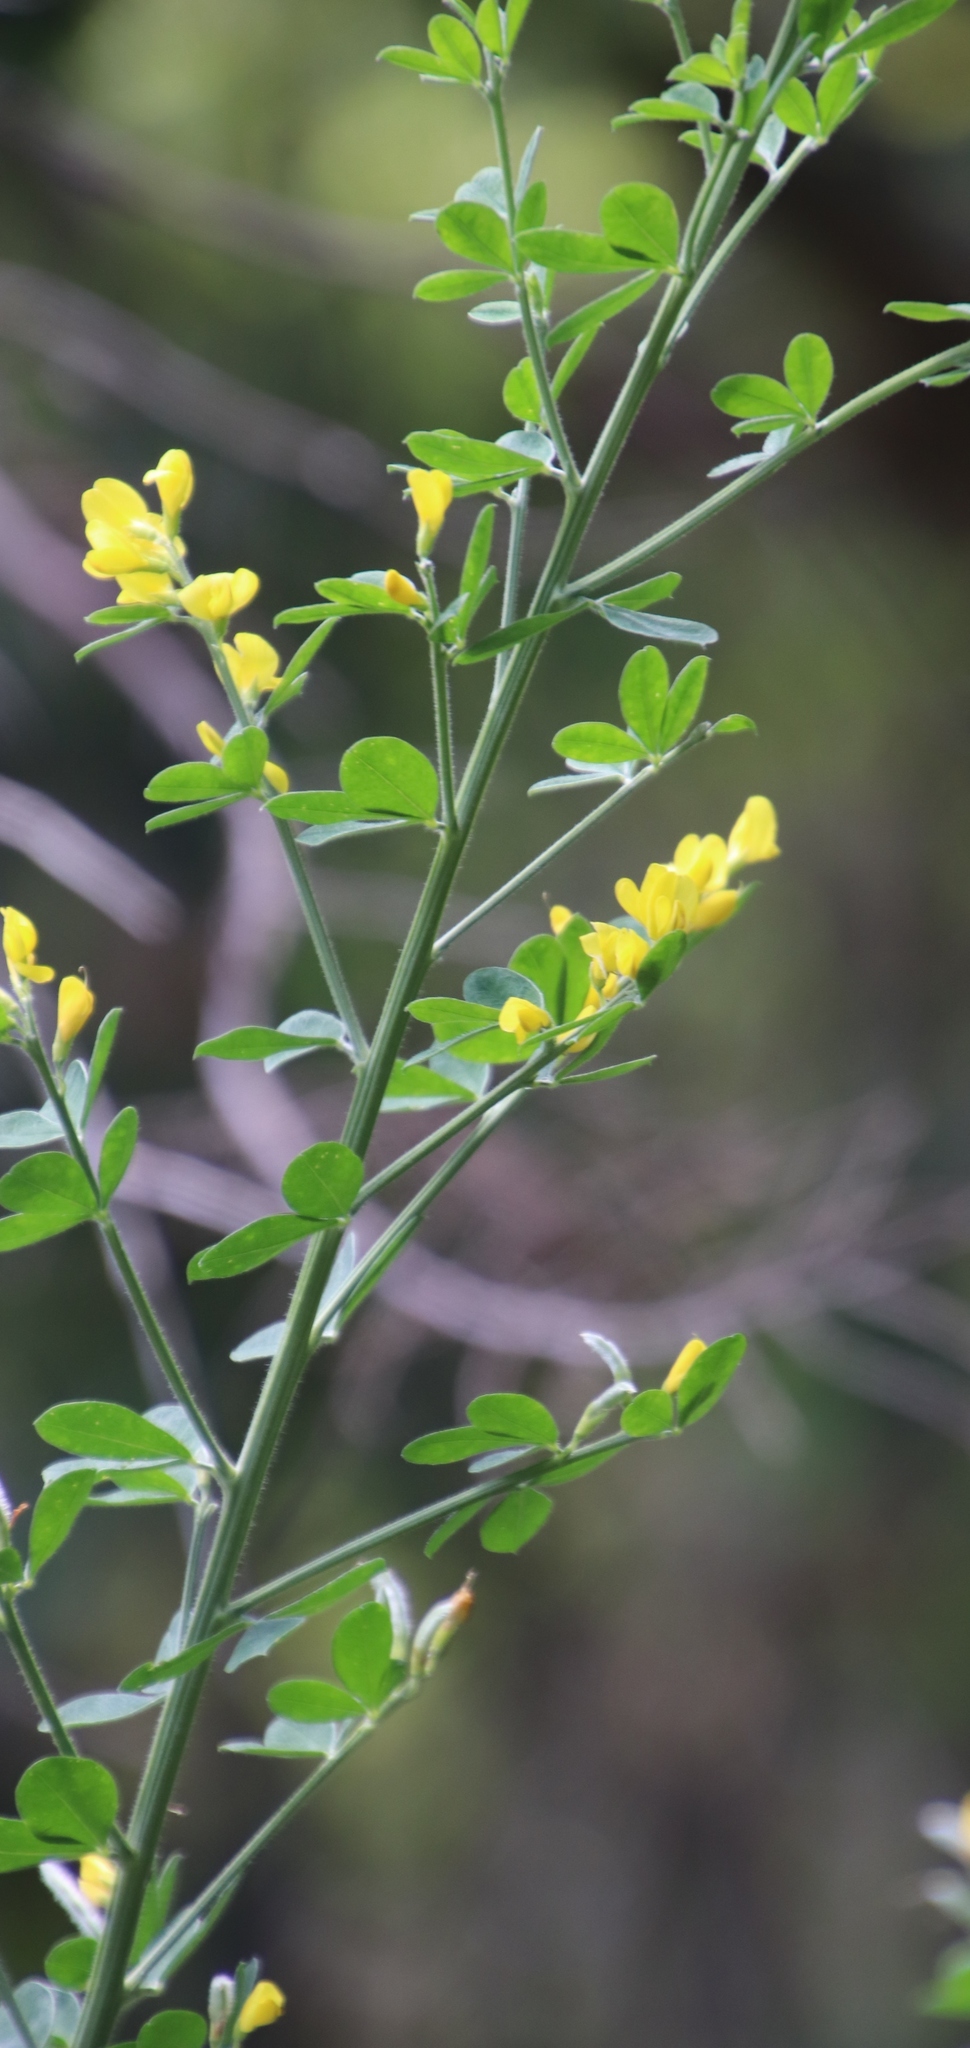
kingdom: Plantae
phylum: Tracheophyta
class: Magnoliopsida
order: Fabales
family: Fabaceae
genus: Genista
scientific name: Genista monspessulana
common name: Montpellier broom
